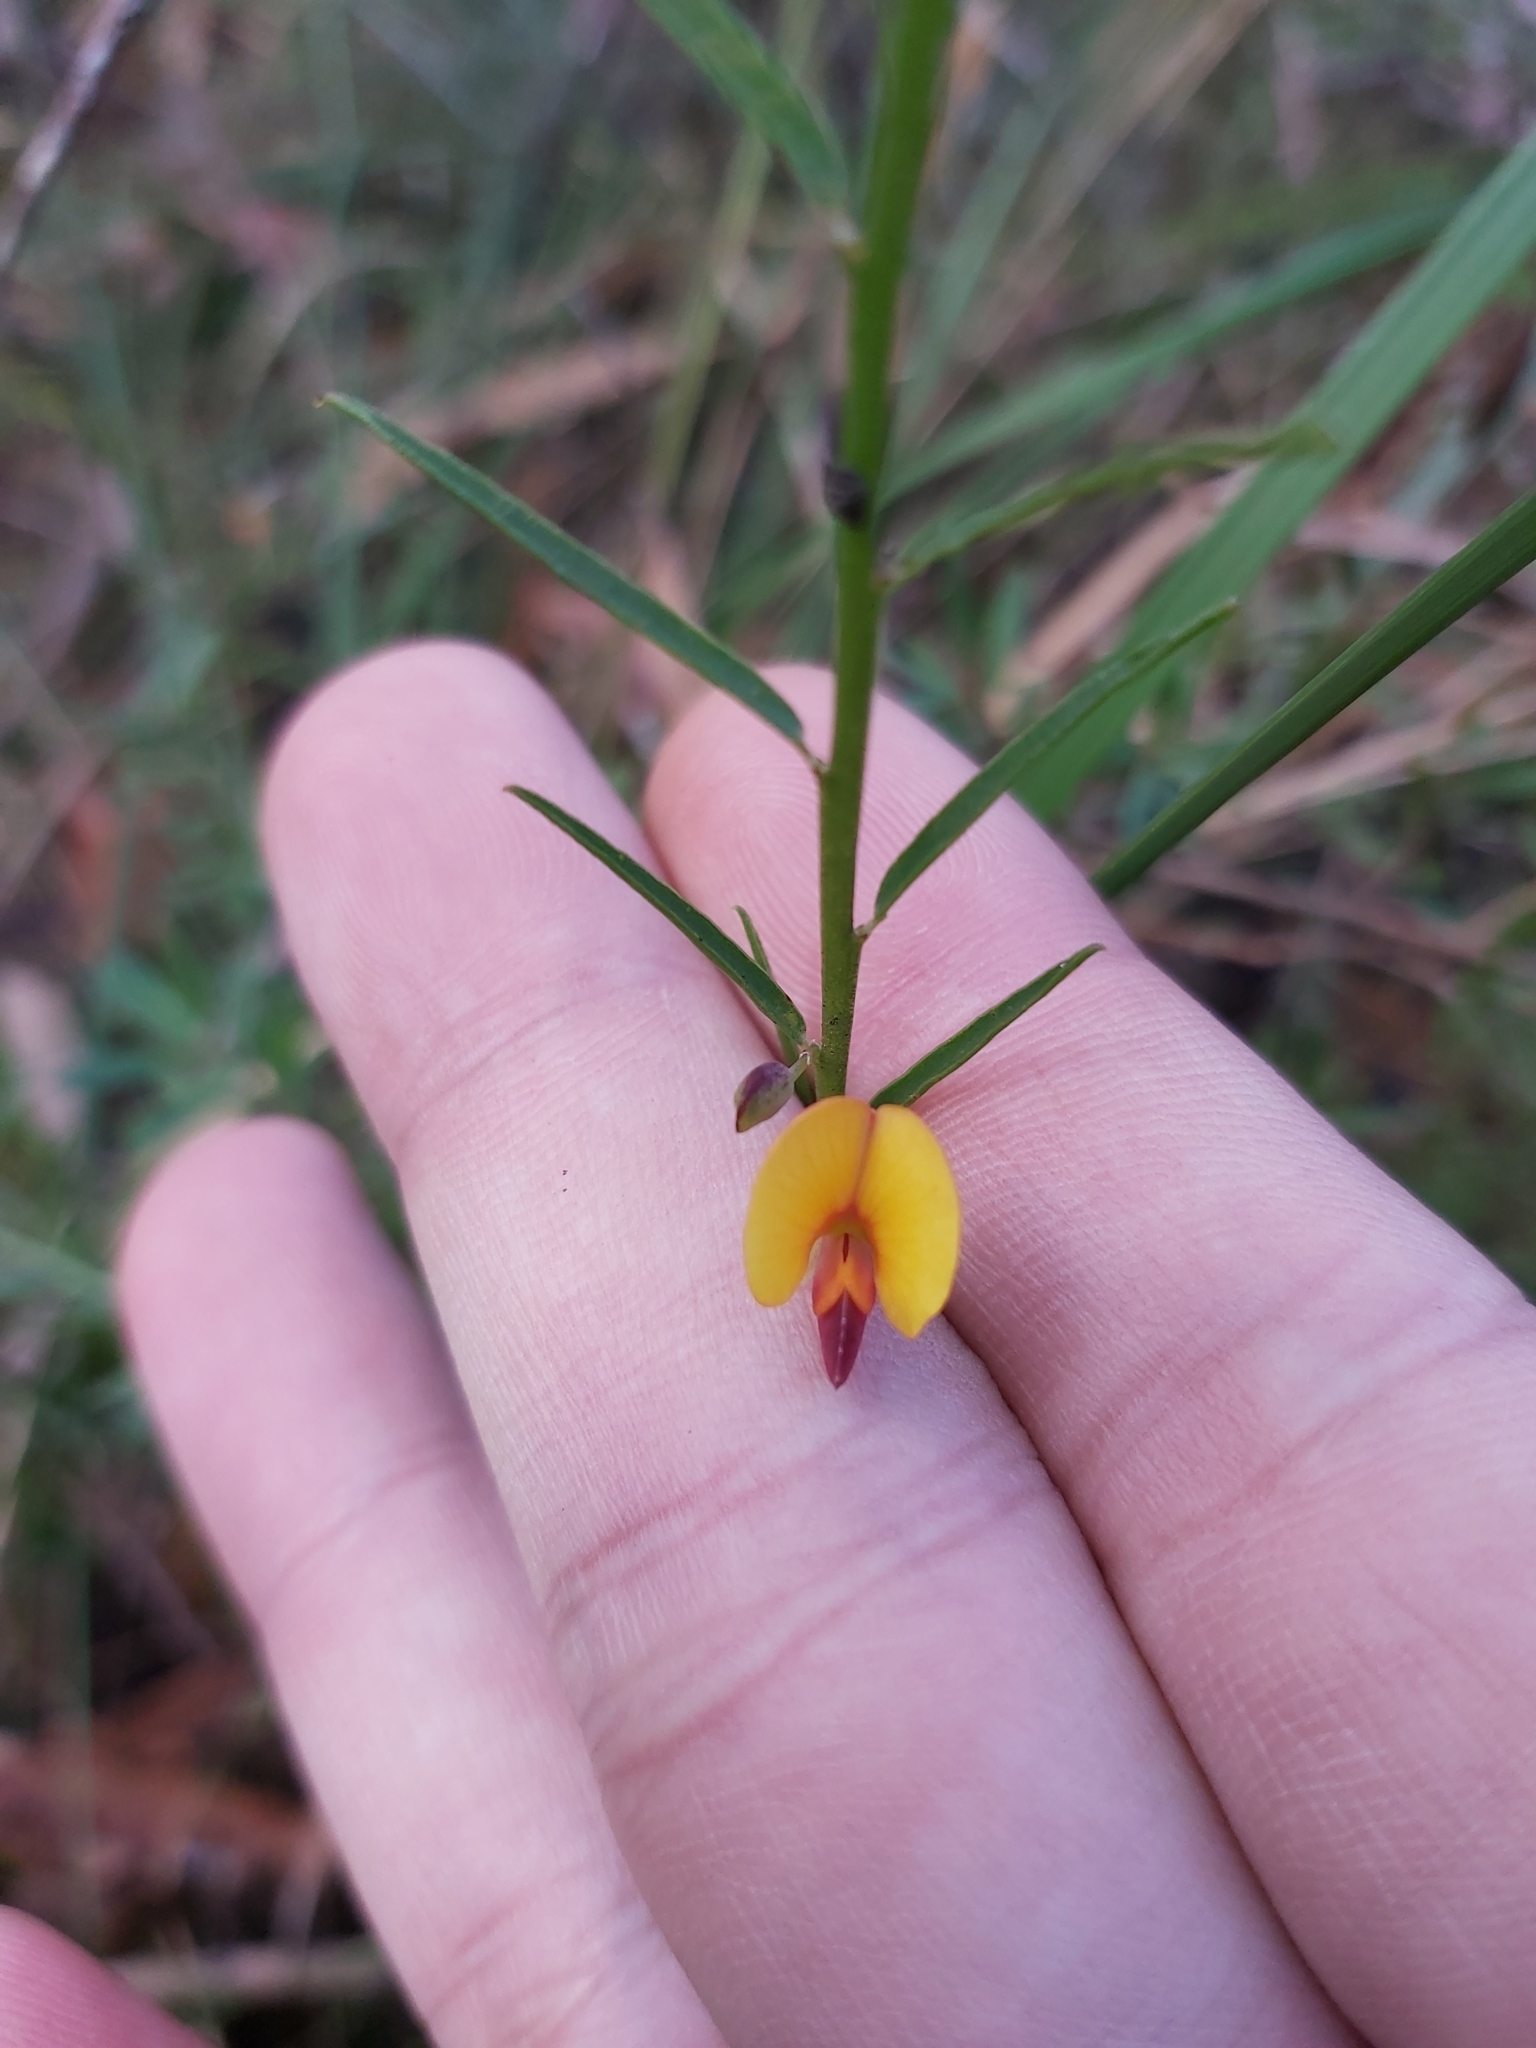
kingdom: Plantae
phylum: Tracheophyta
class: Magnoliopsida
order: Fabales
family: Fabaceae
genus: Bossiaea
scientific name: Bossiaea heterophylla
